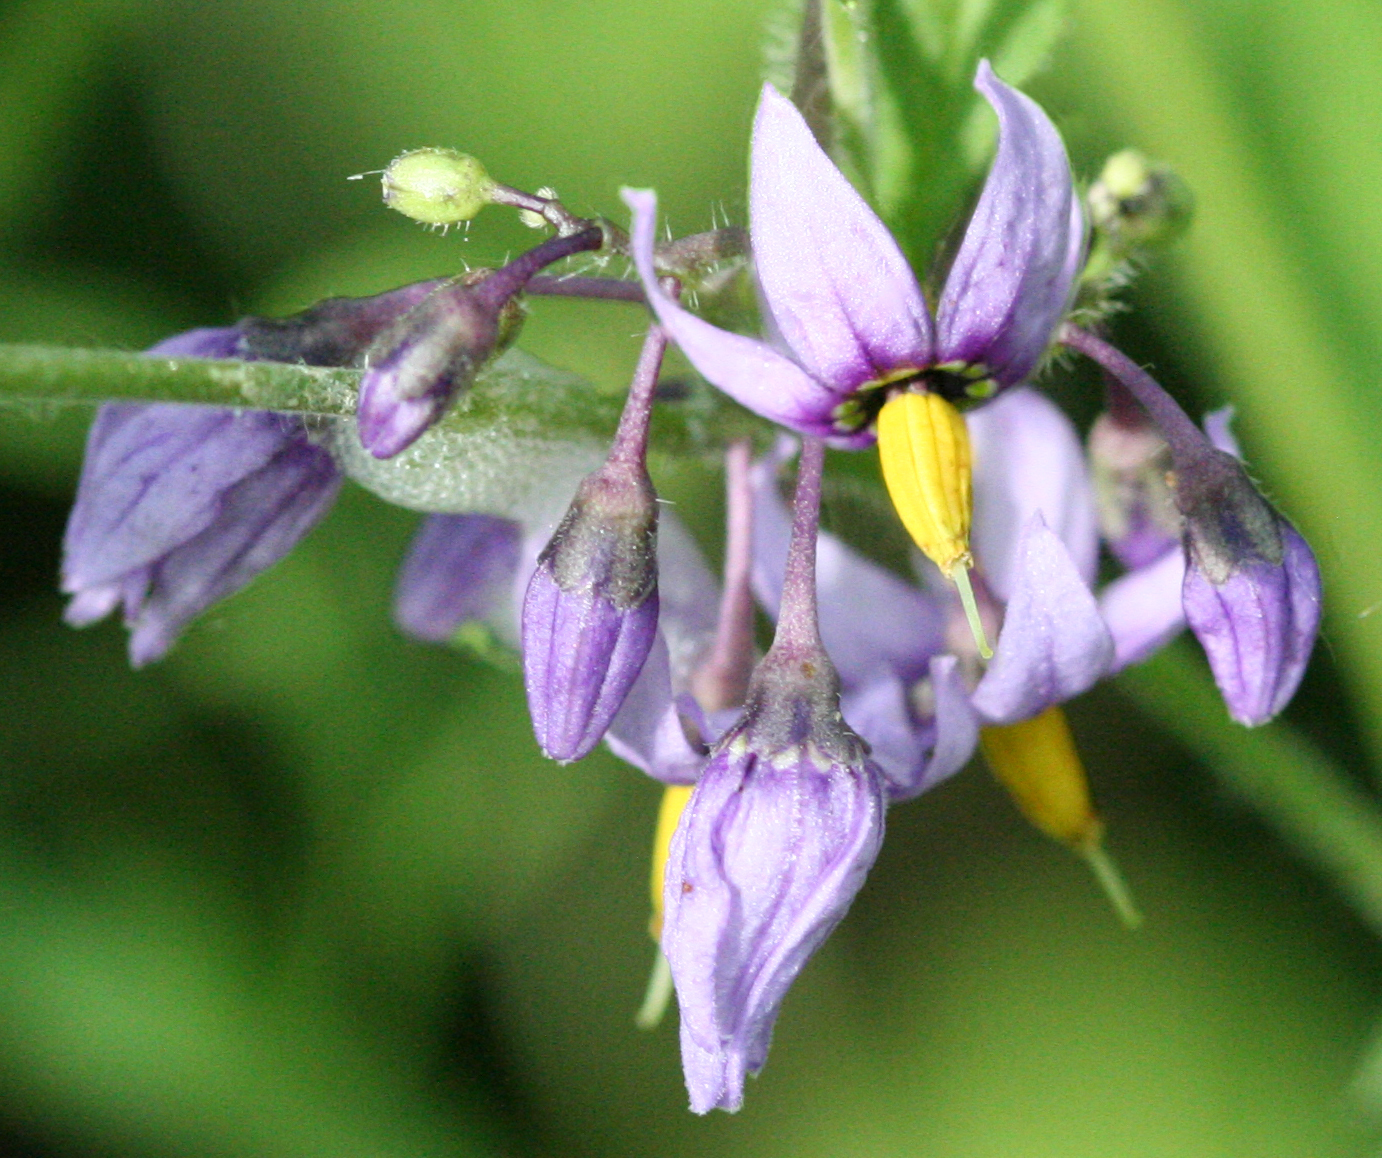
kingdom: Plantae
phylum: Tracheophyta
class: Magnoliopsida
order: Solanales
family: Solanaceae
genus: Solanum
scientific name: Solanum dulcamara
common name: Climbing nightshade
